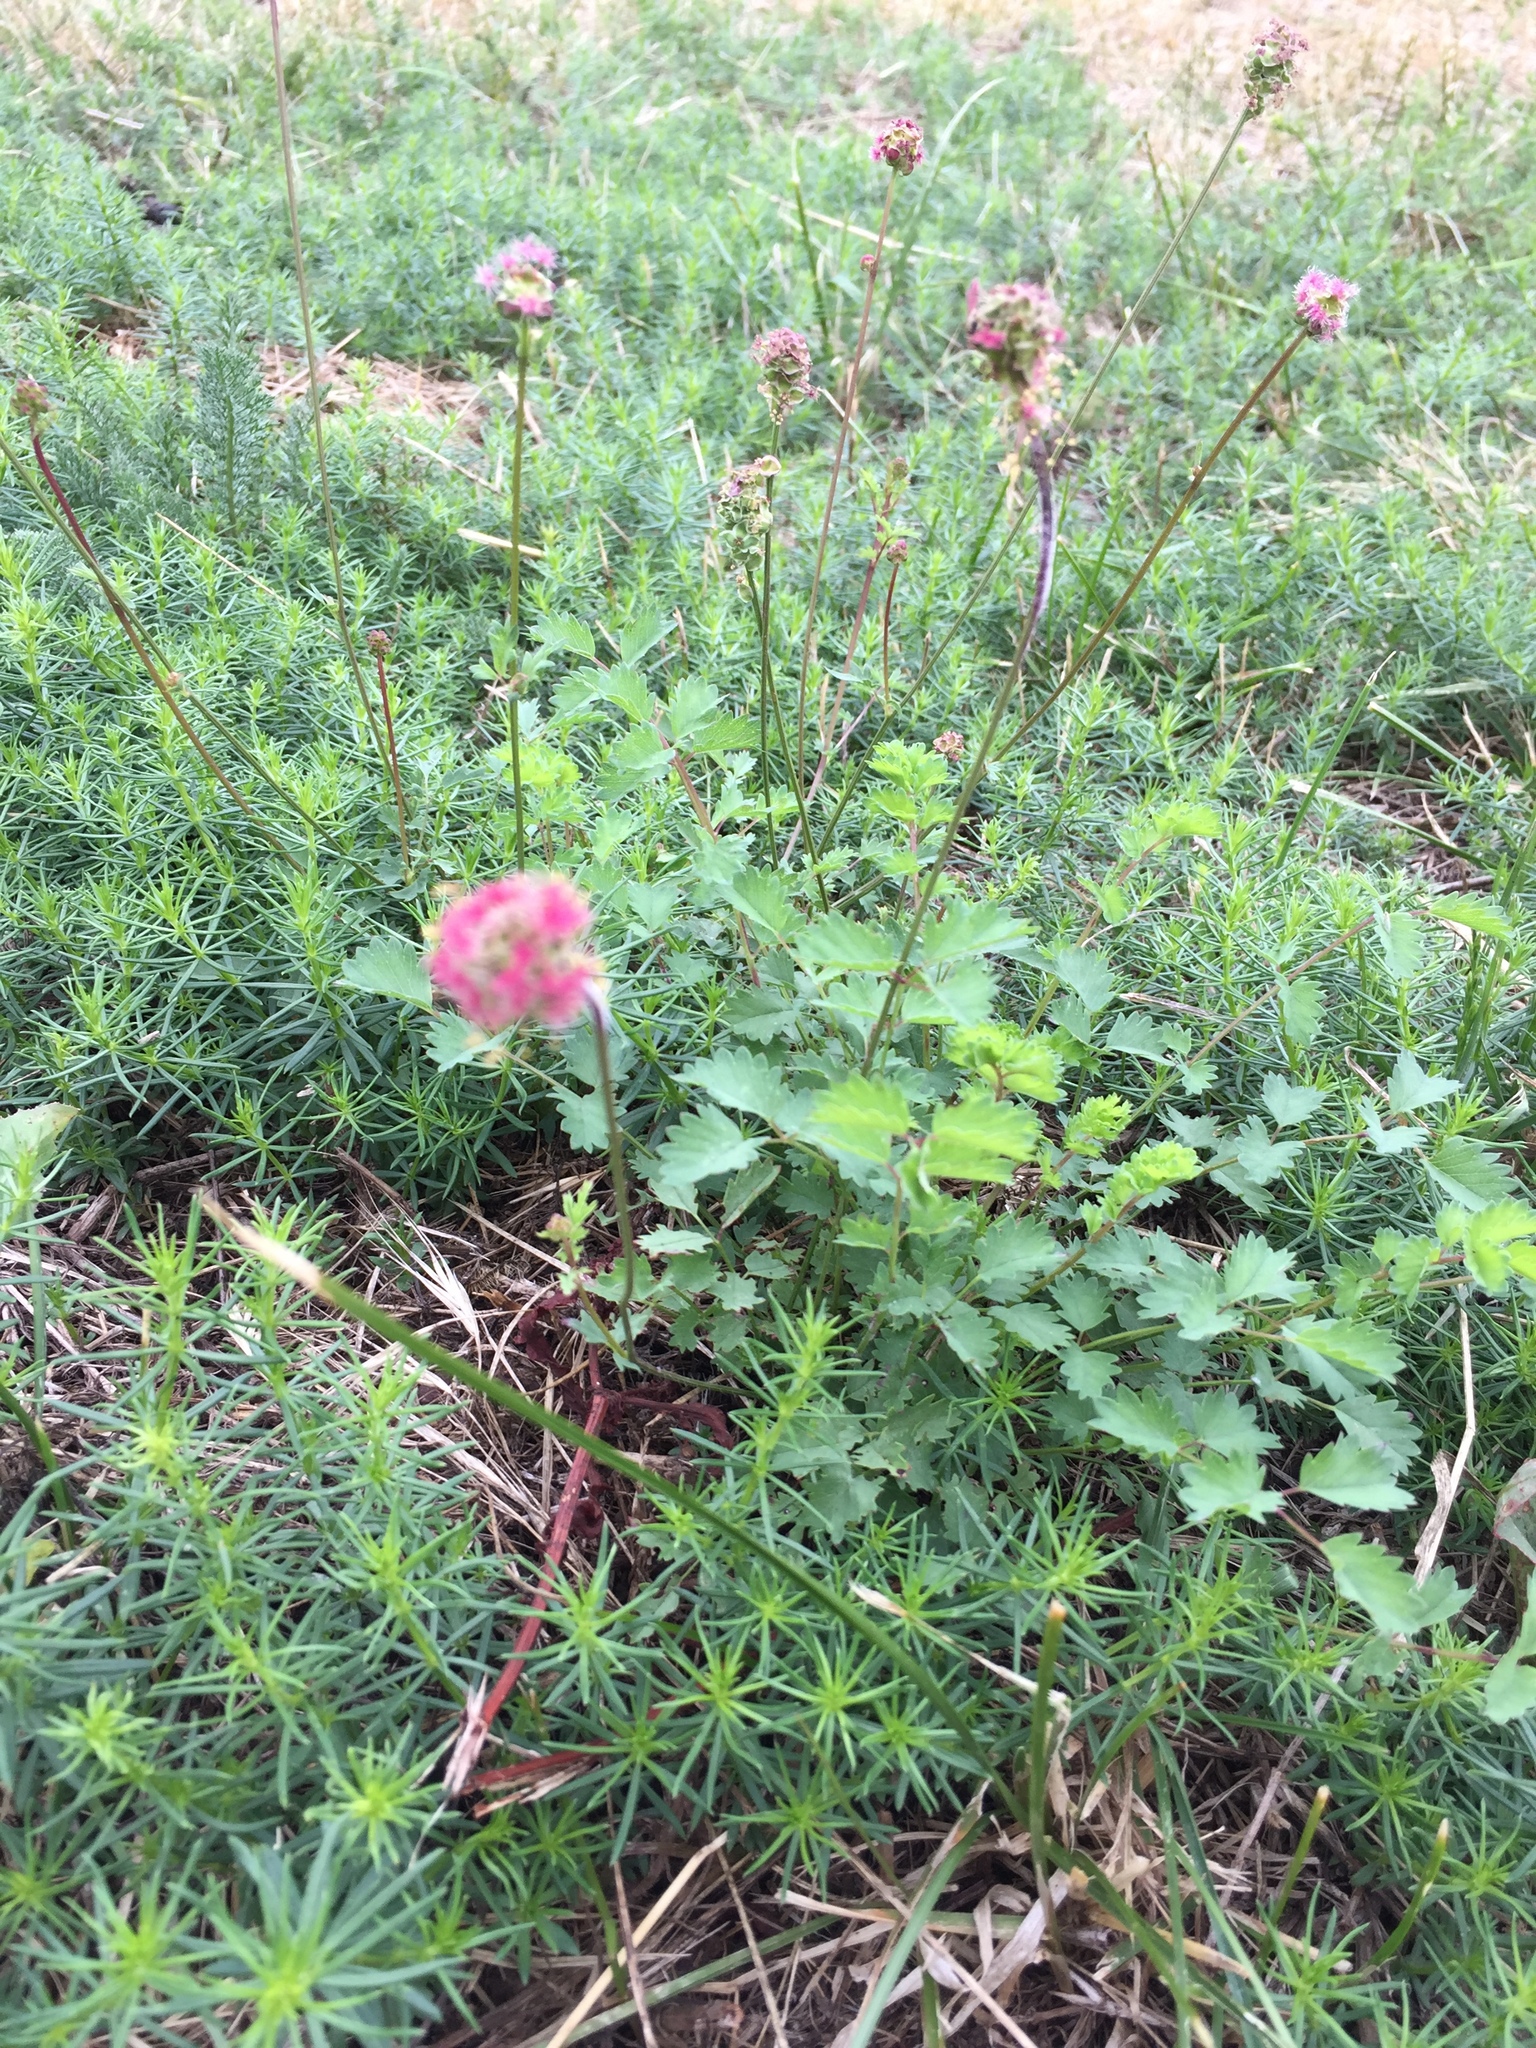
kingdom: Plantae
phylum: Tracheophyta
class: Magnoliopsida
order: Rosales
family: Rosaceae
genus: Poterium
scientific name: Poterium sanguisorba
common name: Salad burnet
